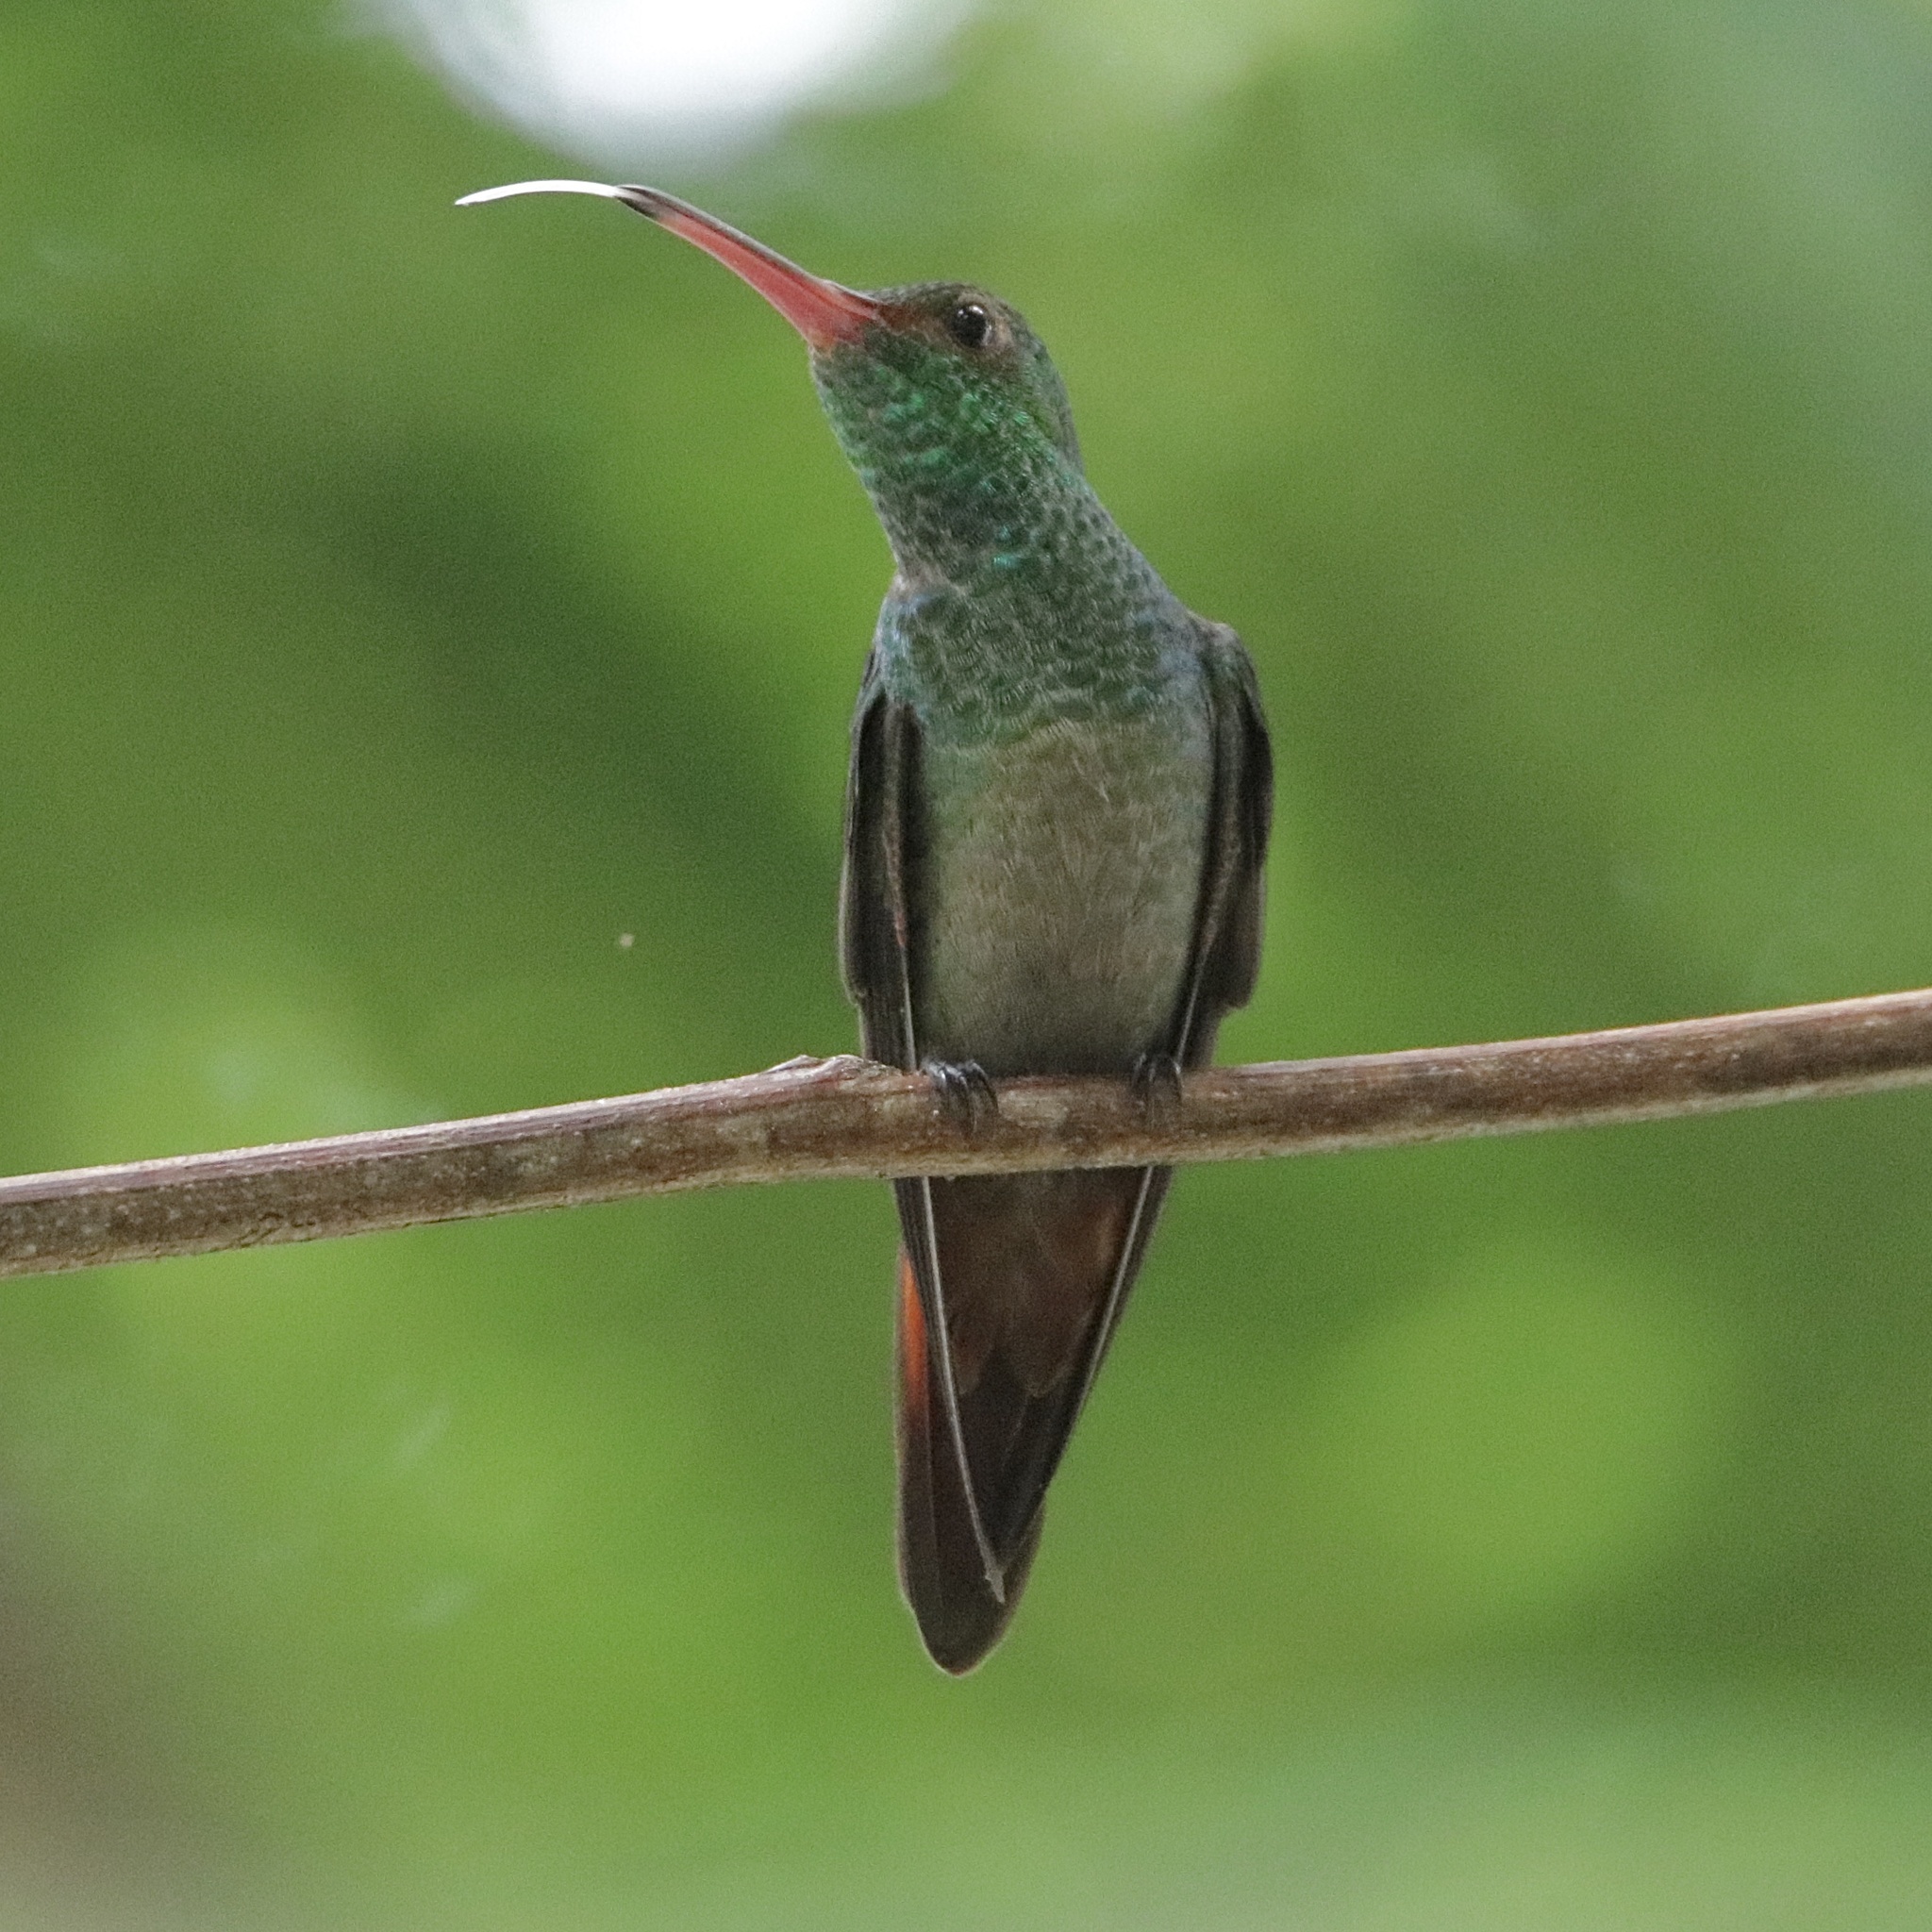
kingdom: Animalia
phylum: Chordata
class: Aves
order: Apodiformes
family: Trochilidae
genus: Amazilia
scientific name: Amazilia tzacatl
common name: Rufous-tailed hummingbird
